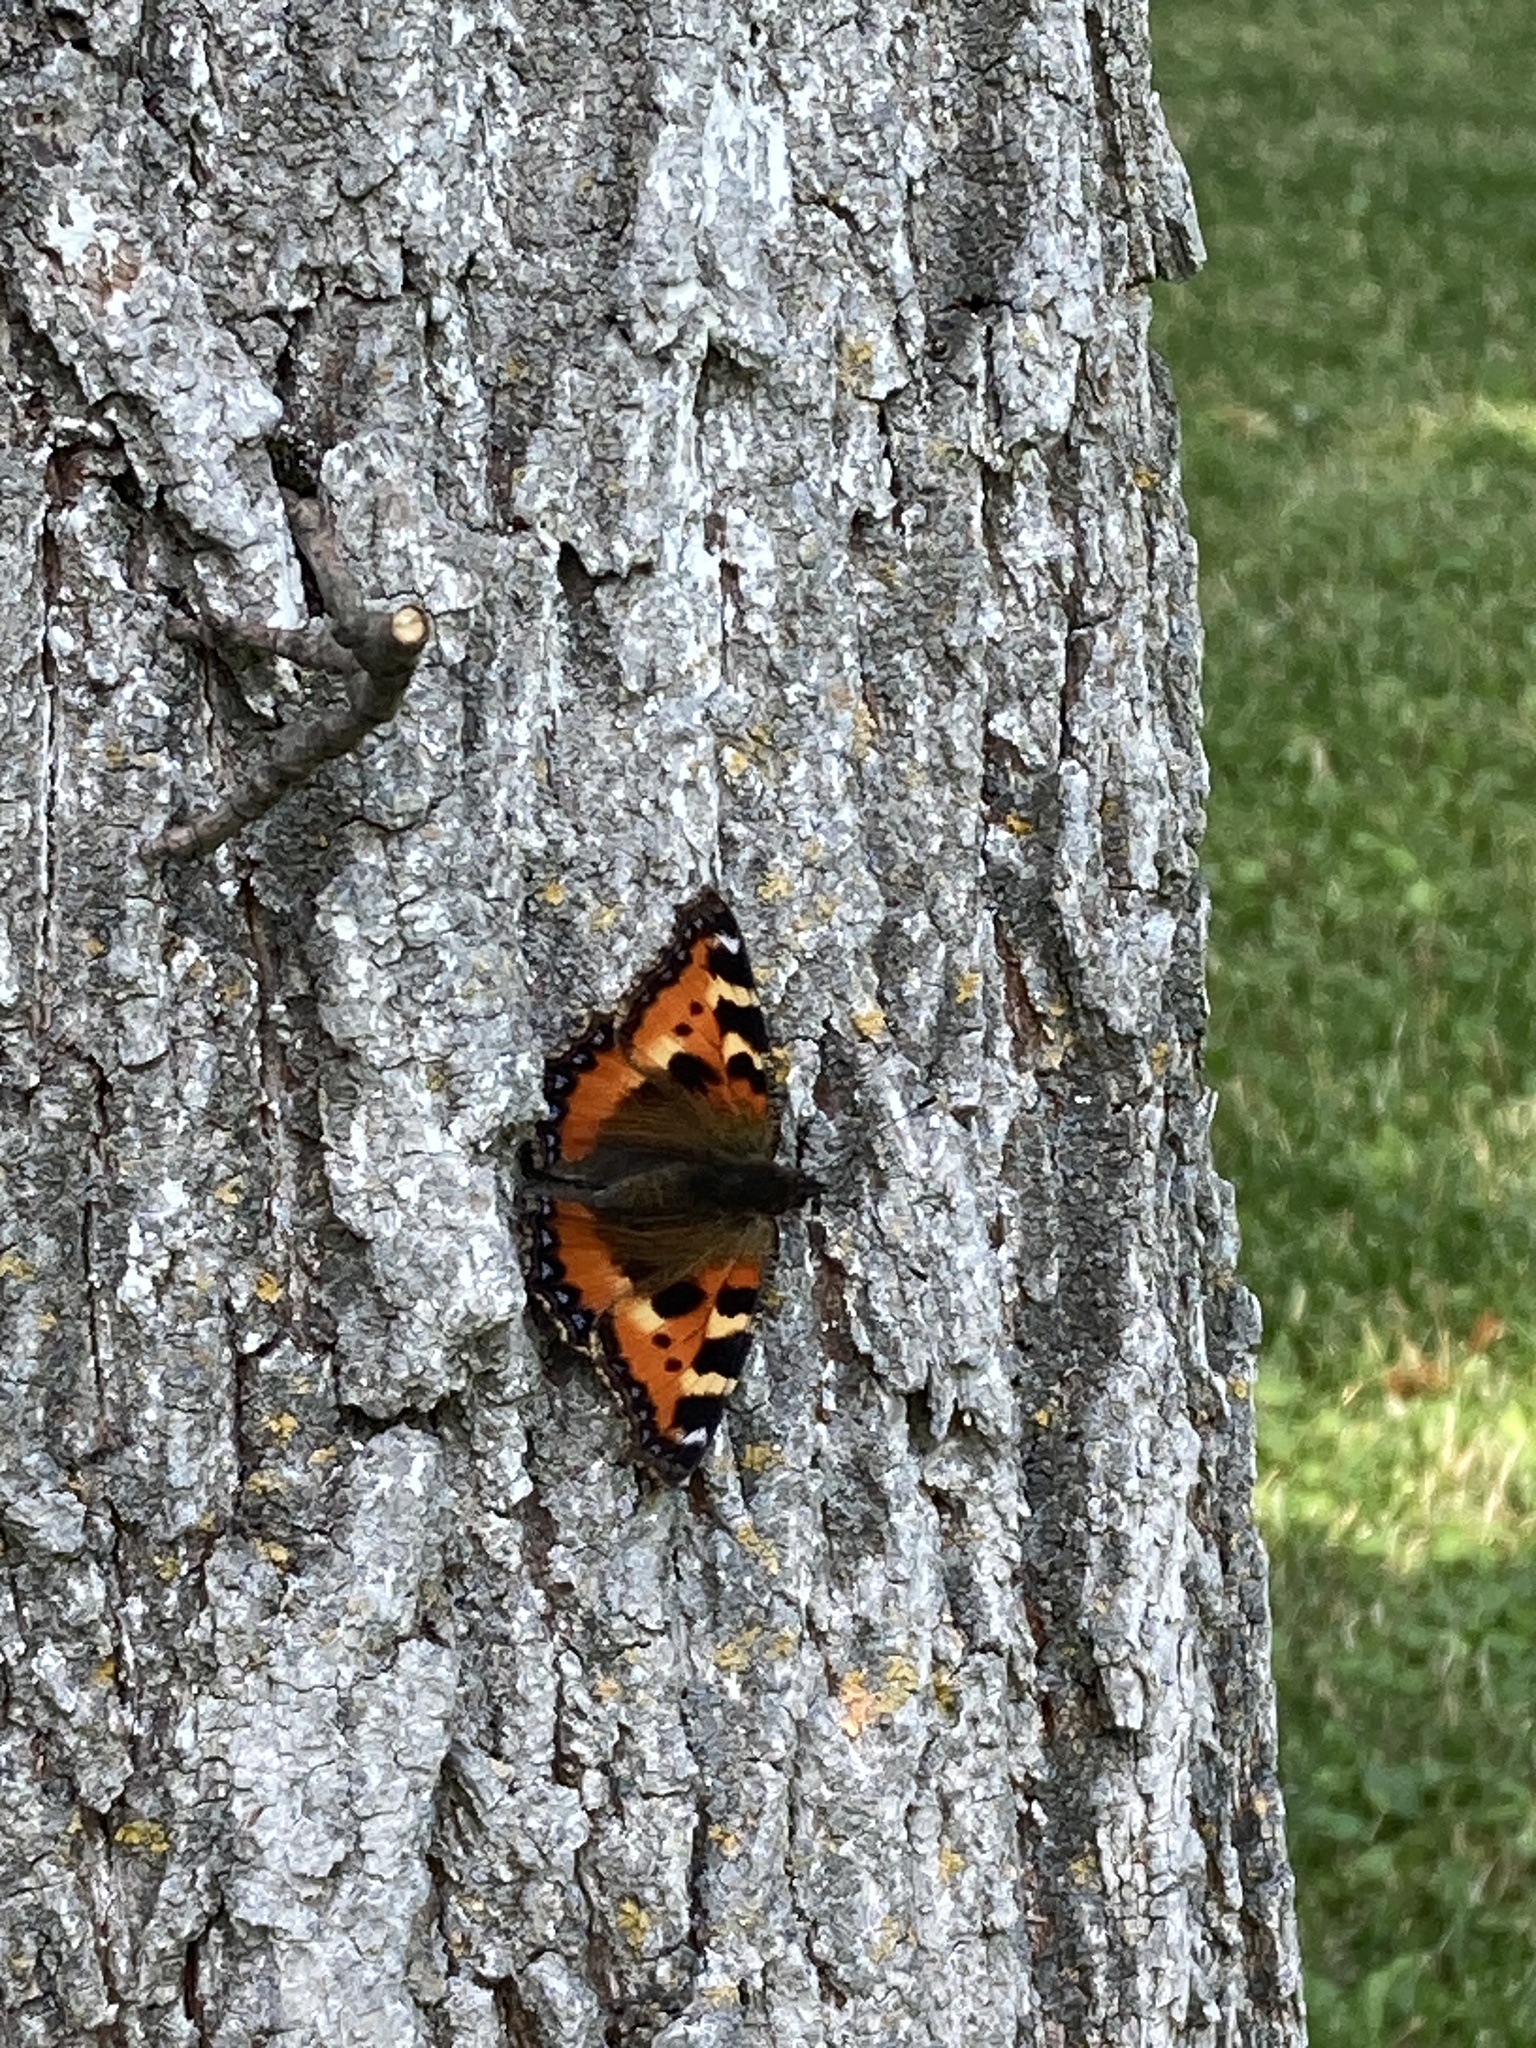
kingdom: Animalia
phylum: Arthropoda
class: Insecta
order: Lepidoptera
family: Nymphalidae
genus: Aglais
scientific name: Aglais urticae
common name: Small tortoiseshell
